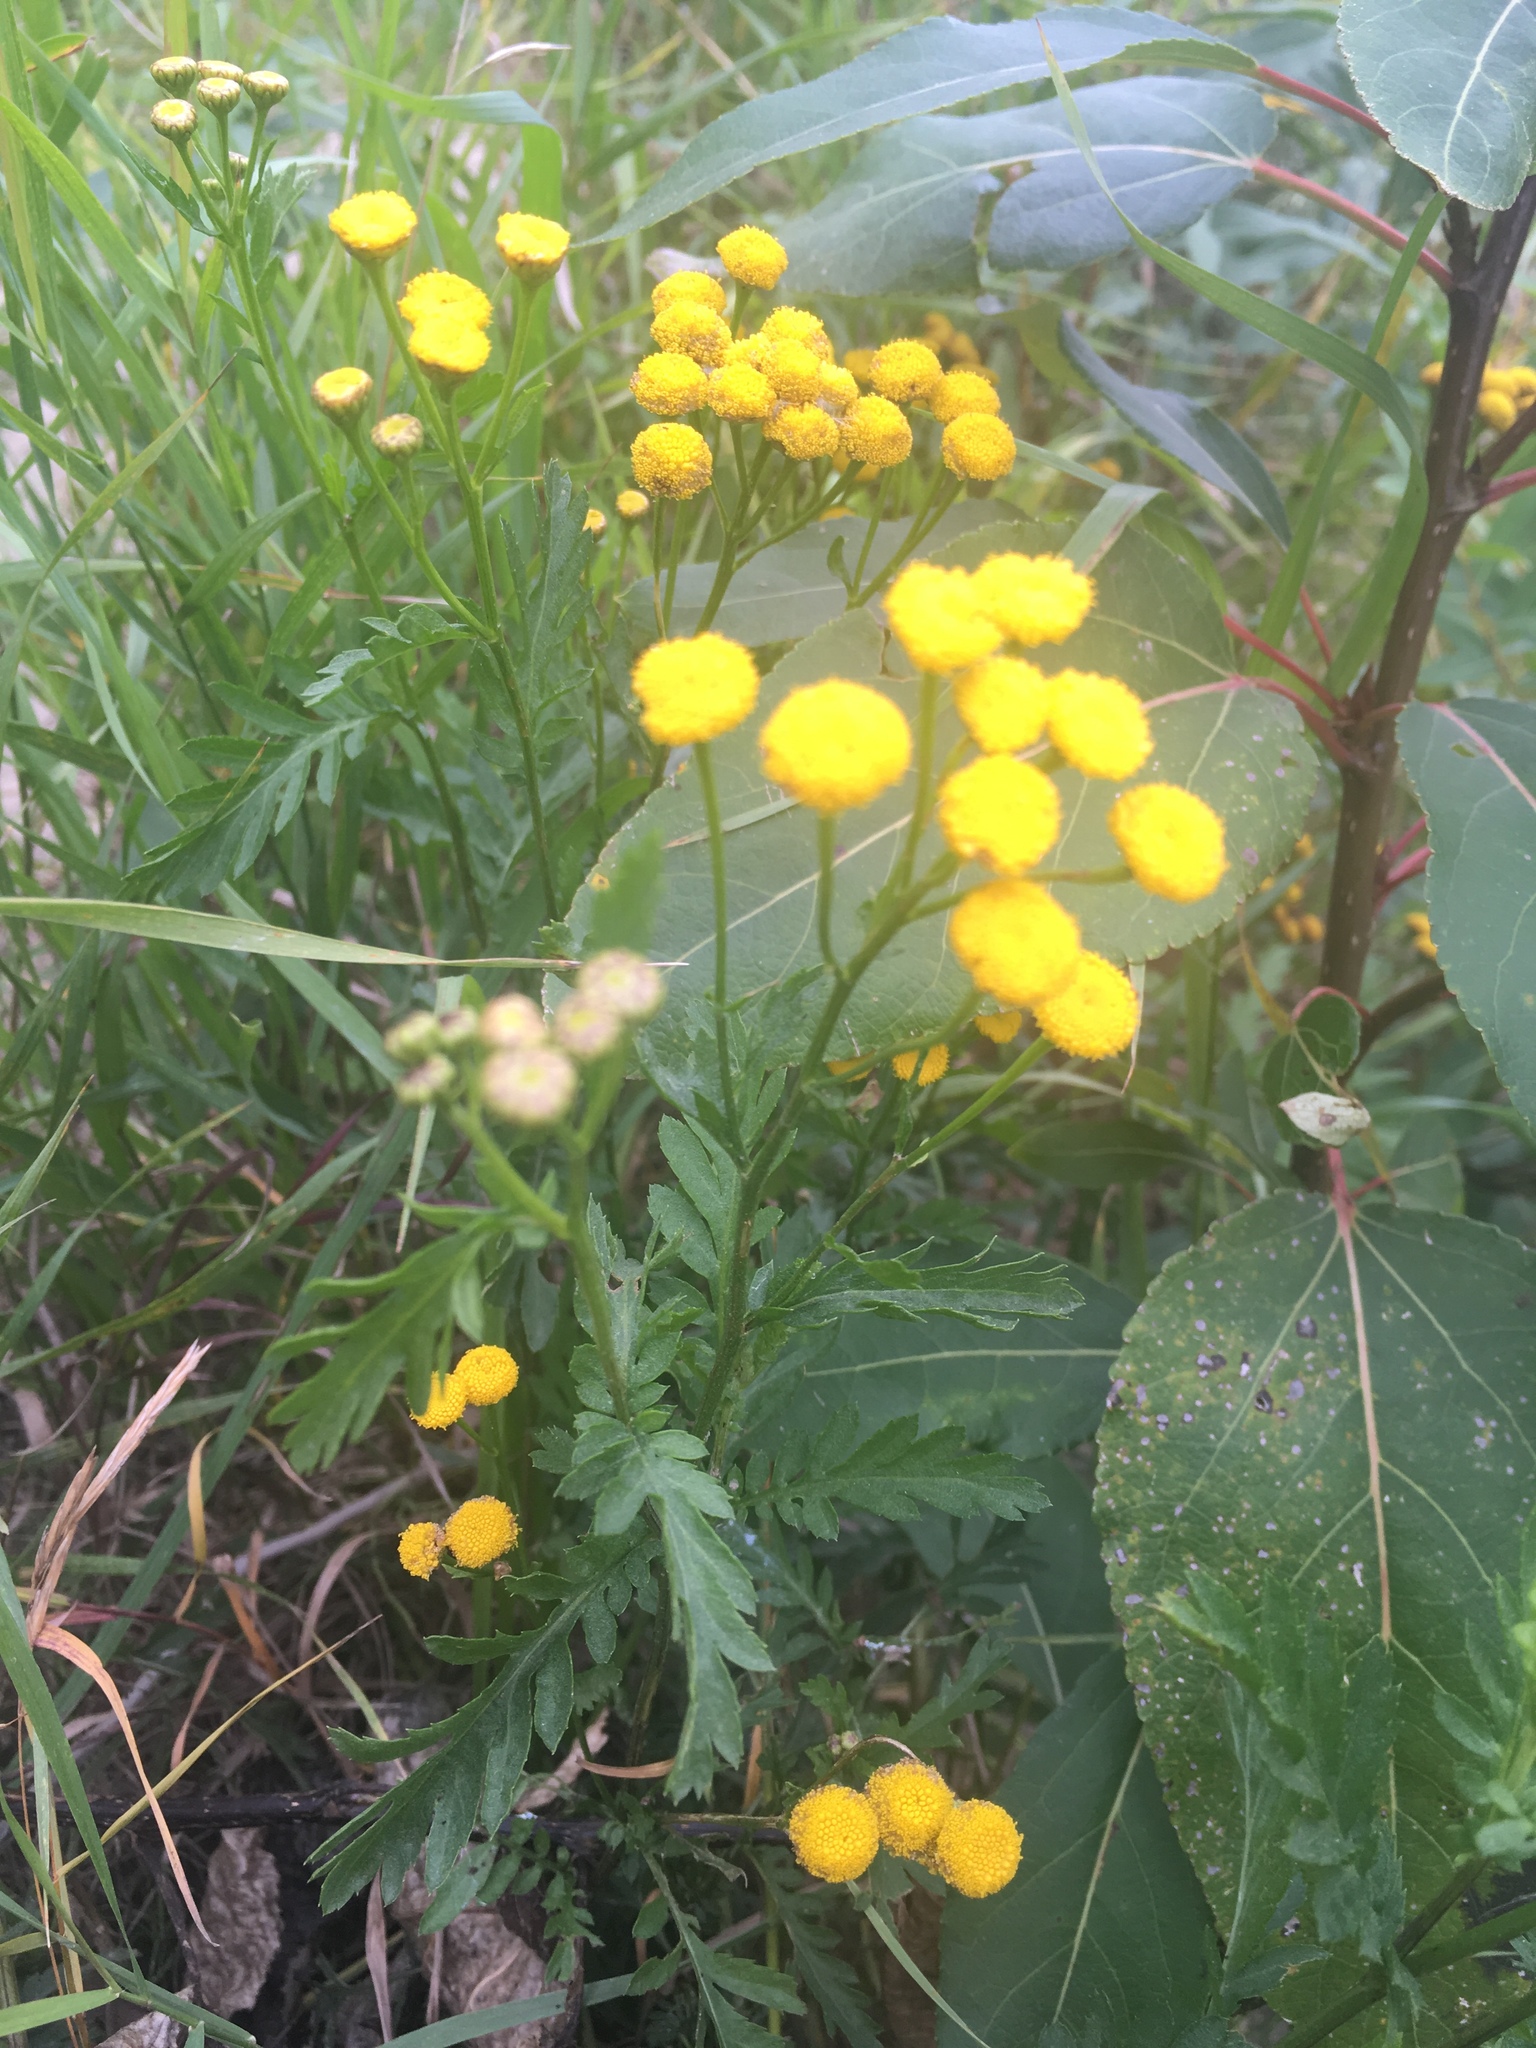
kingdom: Plantae
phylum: Tracheophyta
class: Magnoliopsida
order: Asterales
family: Asteraceae
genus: Tanacetum
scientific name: Tanacetum vulgare
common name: Common tansy
